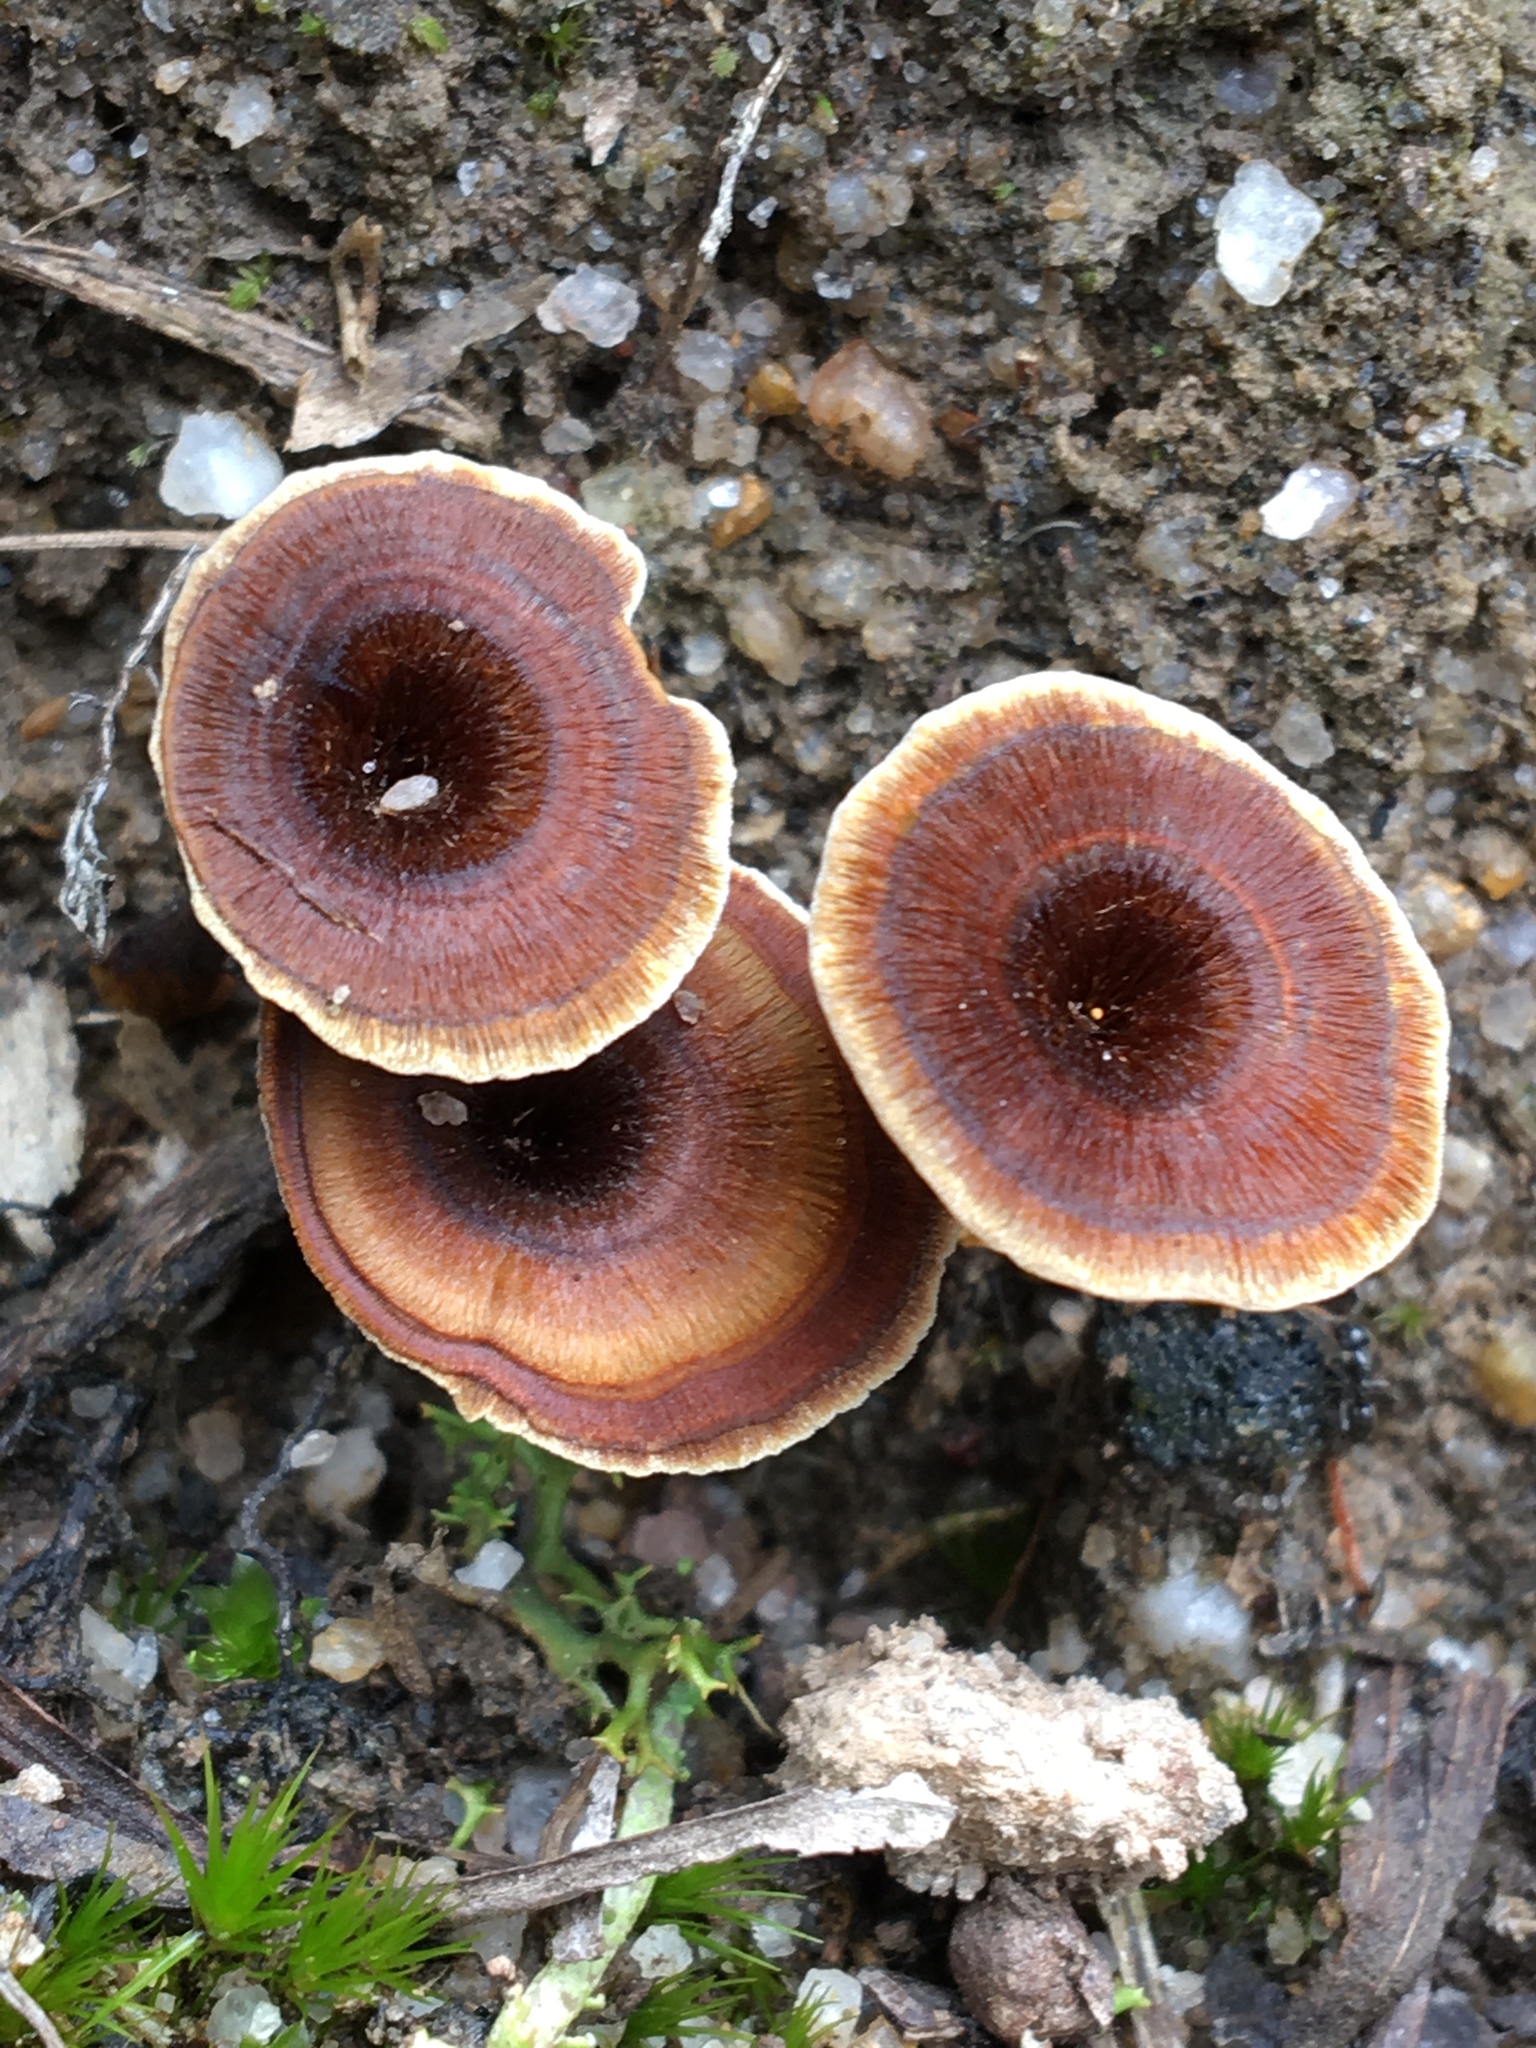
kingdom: Fungi
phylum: Basidiomycota
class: Agaricomycetes
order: Hymenochaetales
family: Hymenochaetaceae
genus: Coltricia
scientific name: Coltricia australica
